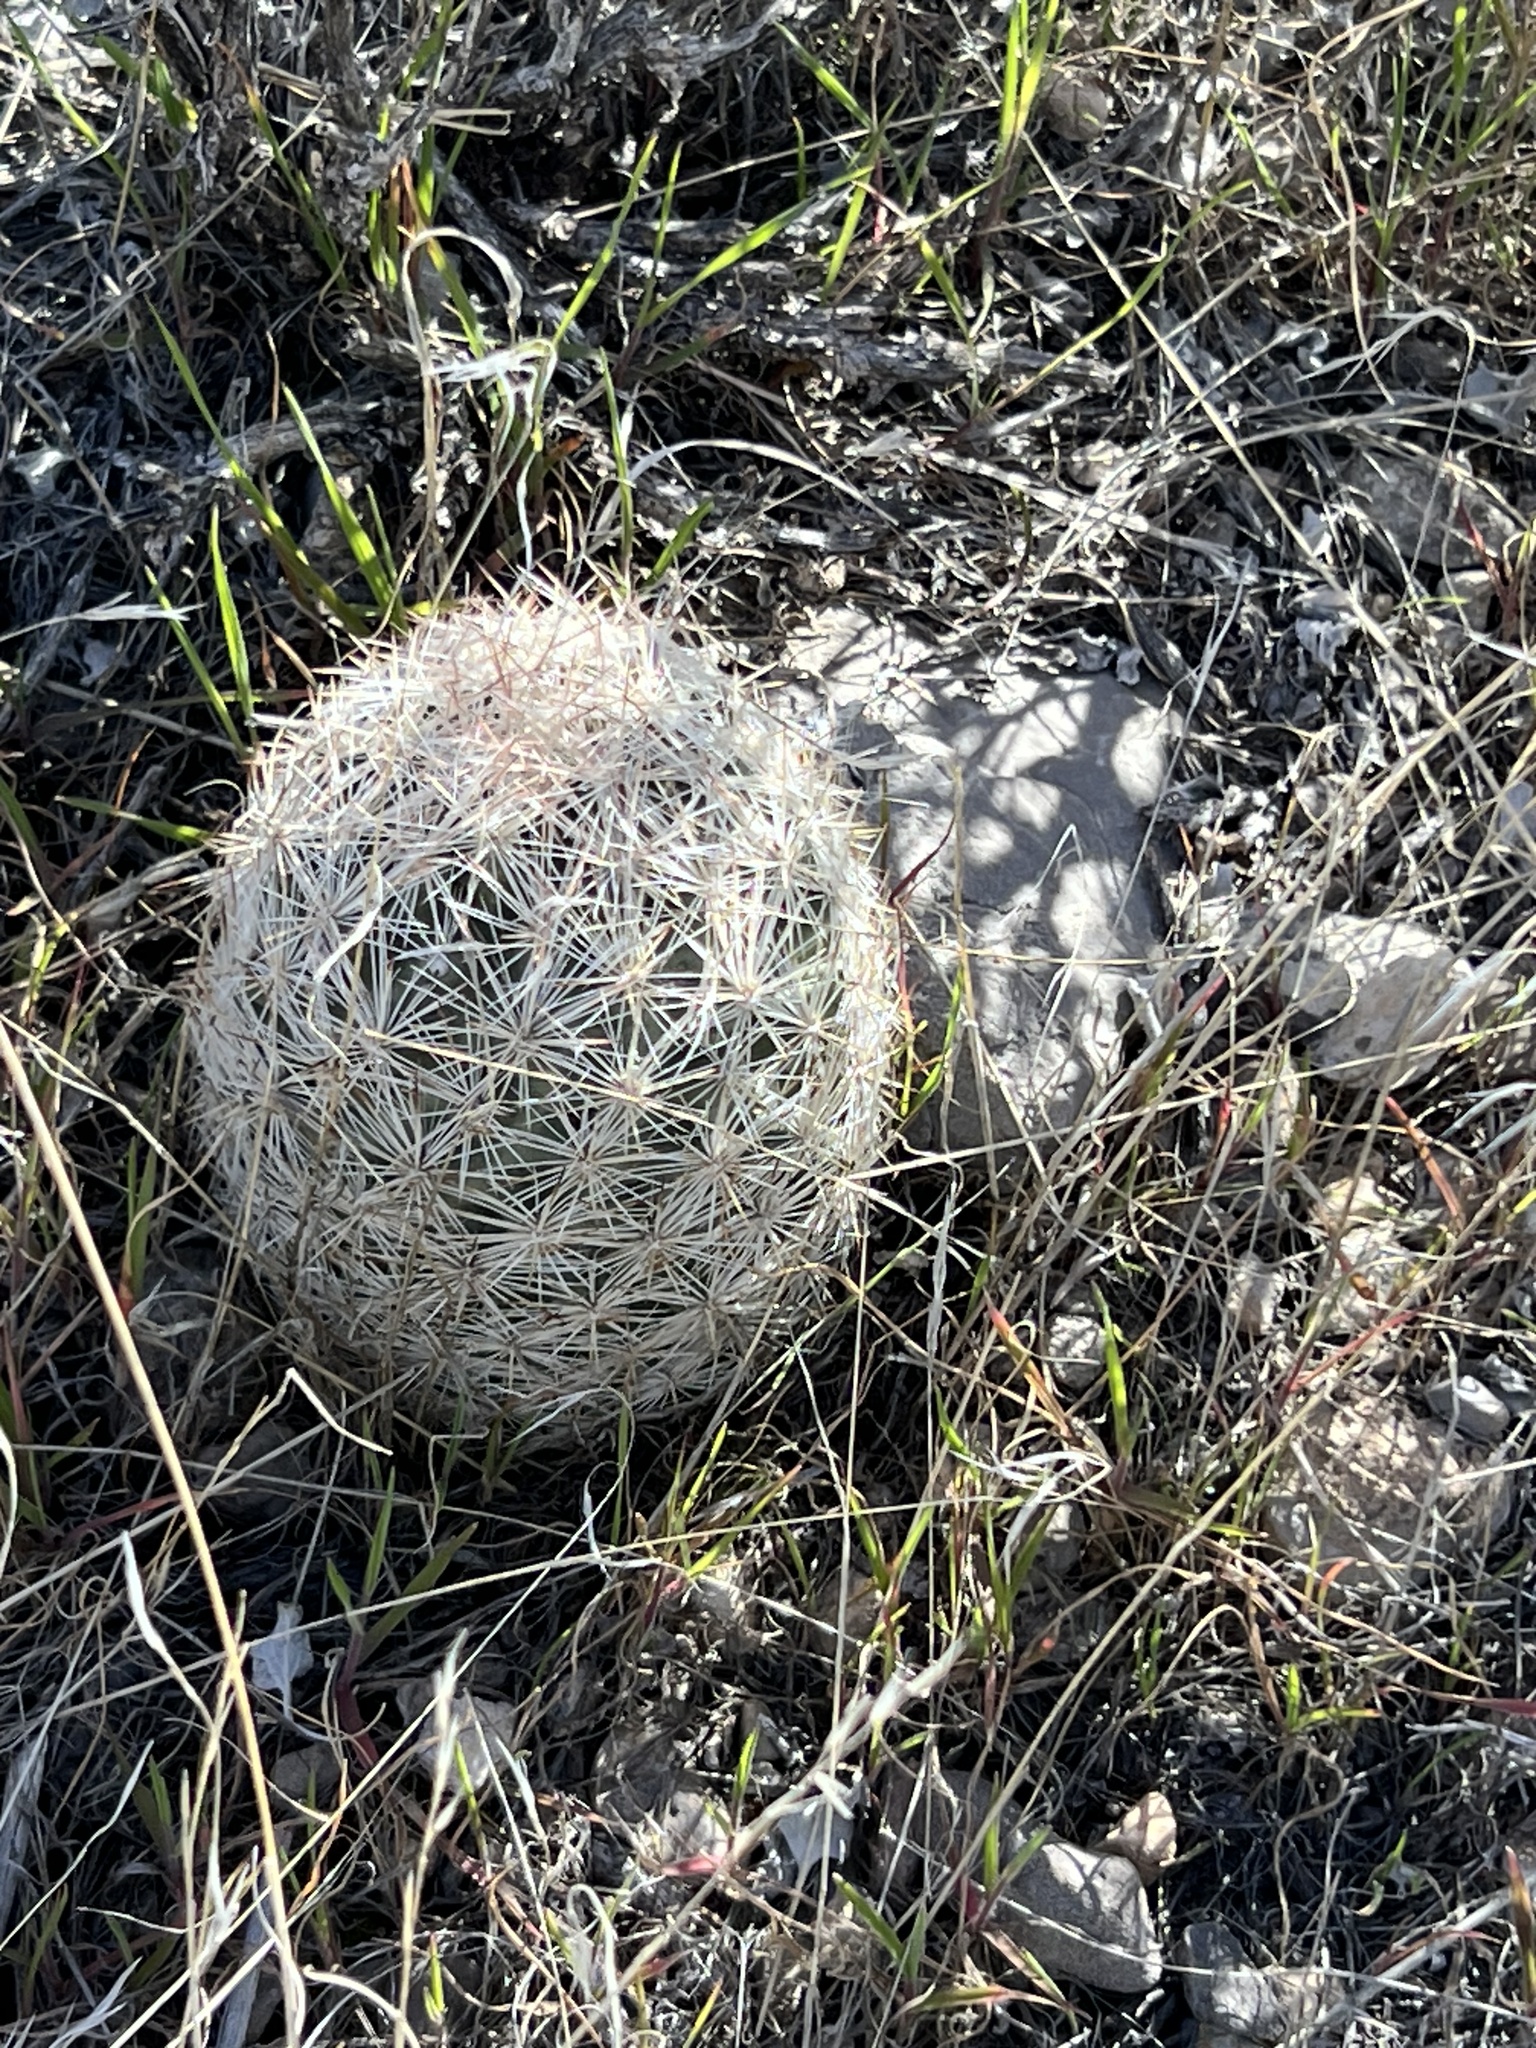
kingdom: Plantae
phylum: Tracheophyta
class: Magnoliopsida
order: Caryophyllales
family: Cactaceae
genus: Pelecyphora
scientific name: Pelecyphora dasyacantha
